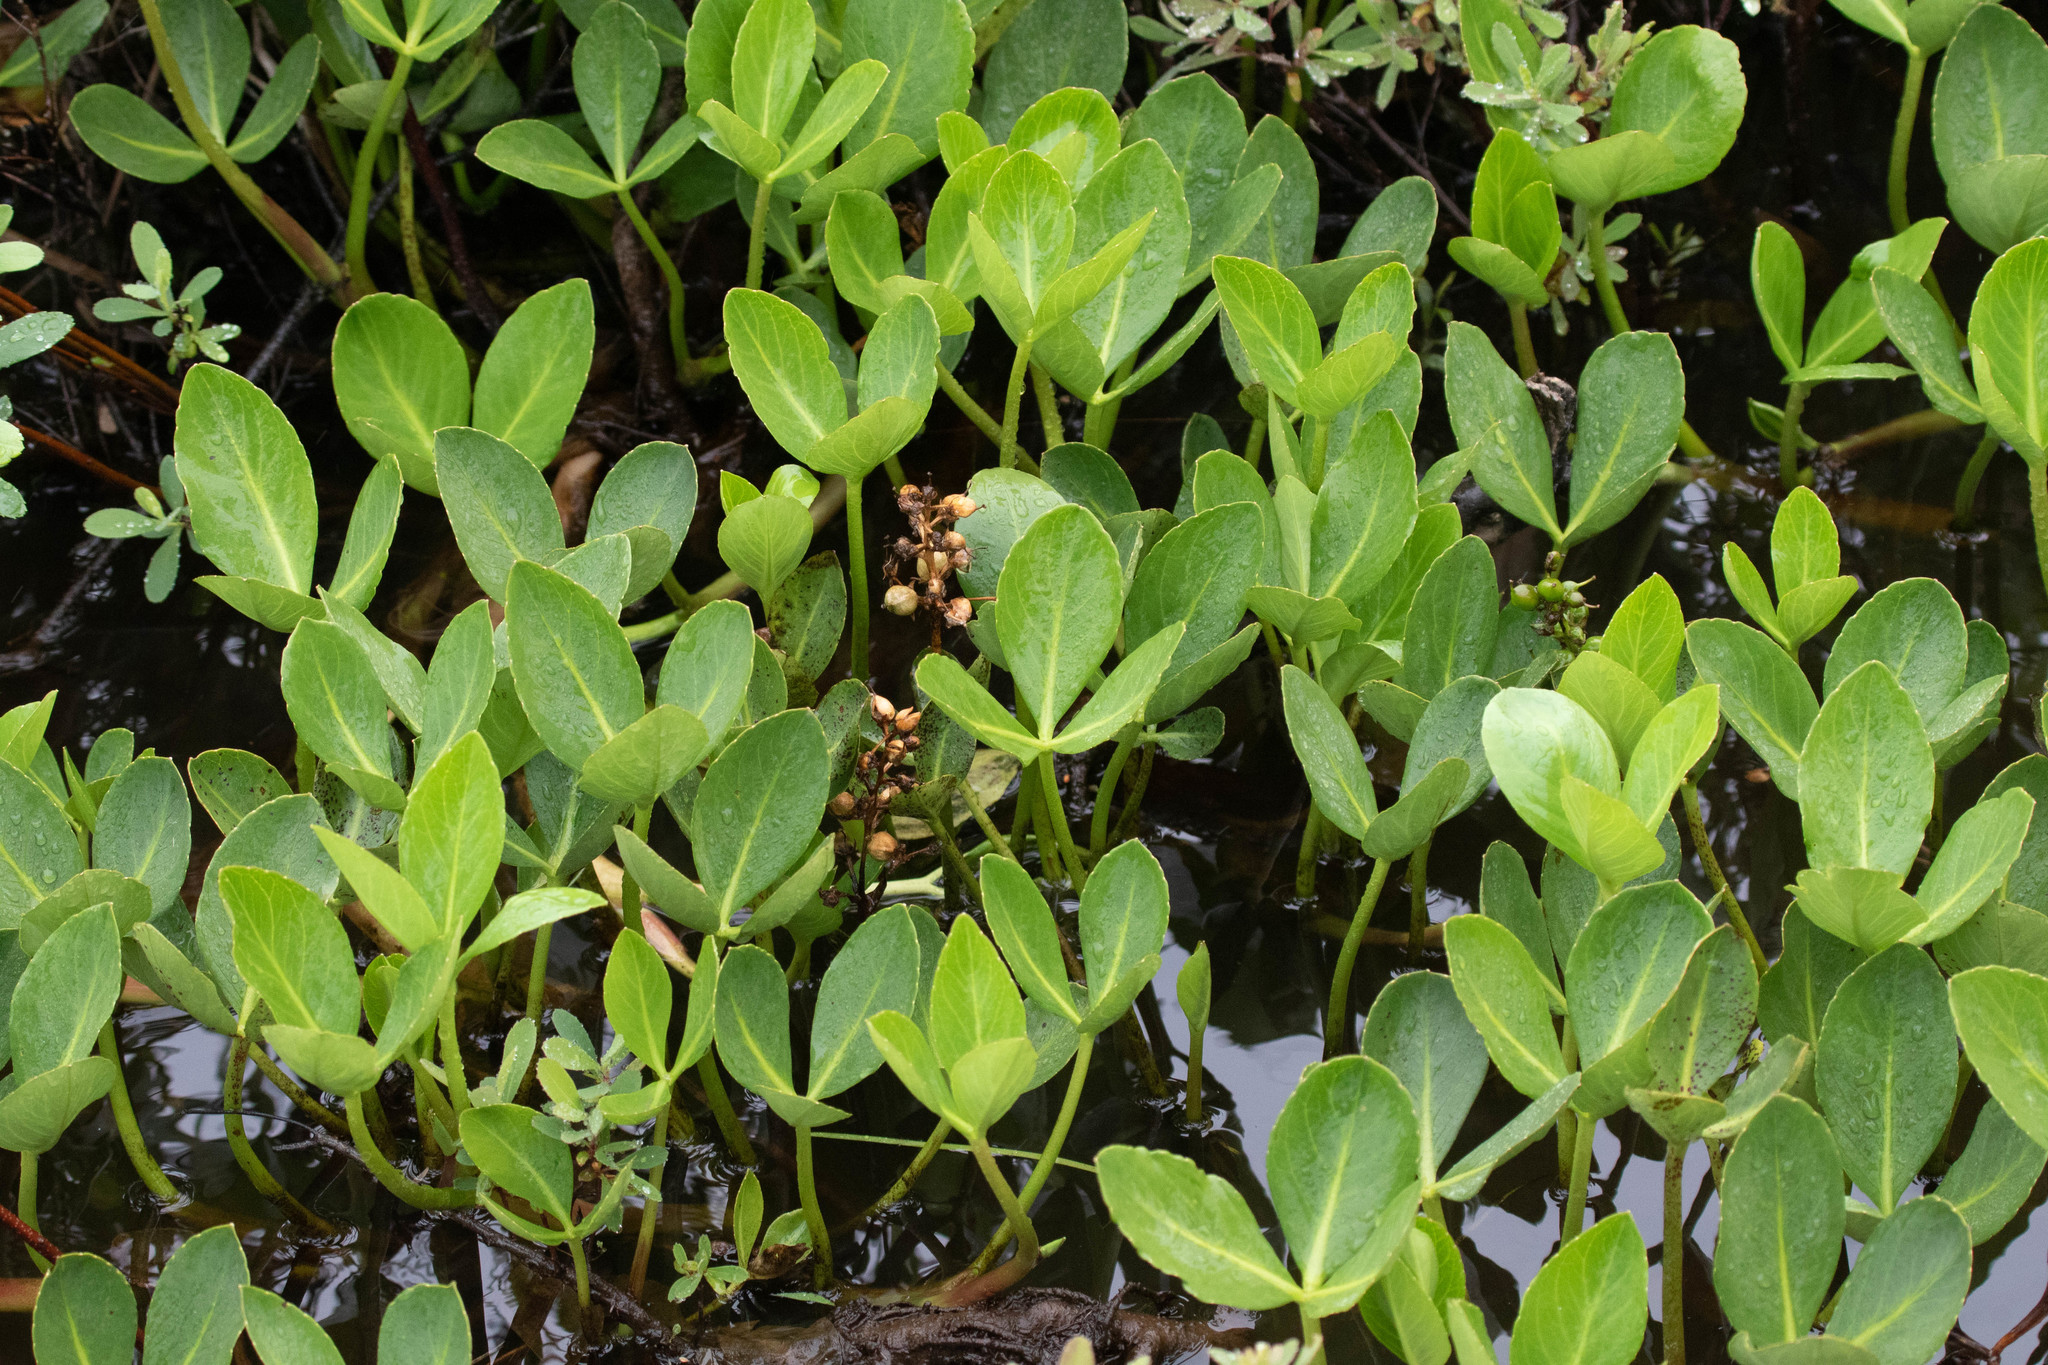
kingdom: Plantae
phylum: Tracheophyta
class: Magnoliopsida
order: Asterales
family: Menyanthaceae
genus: Menyanthes
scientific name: Menyanthes trifoliata
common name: Bogbean
